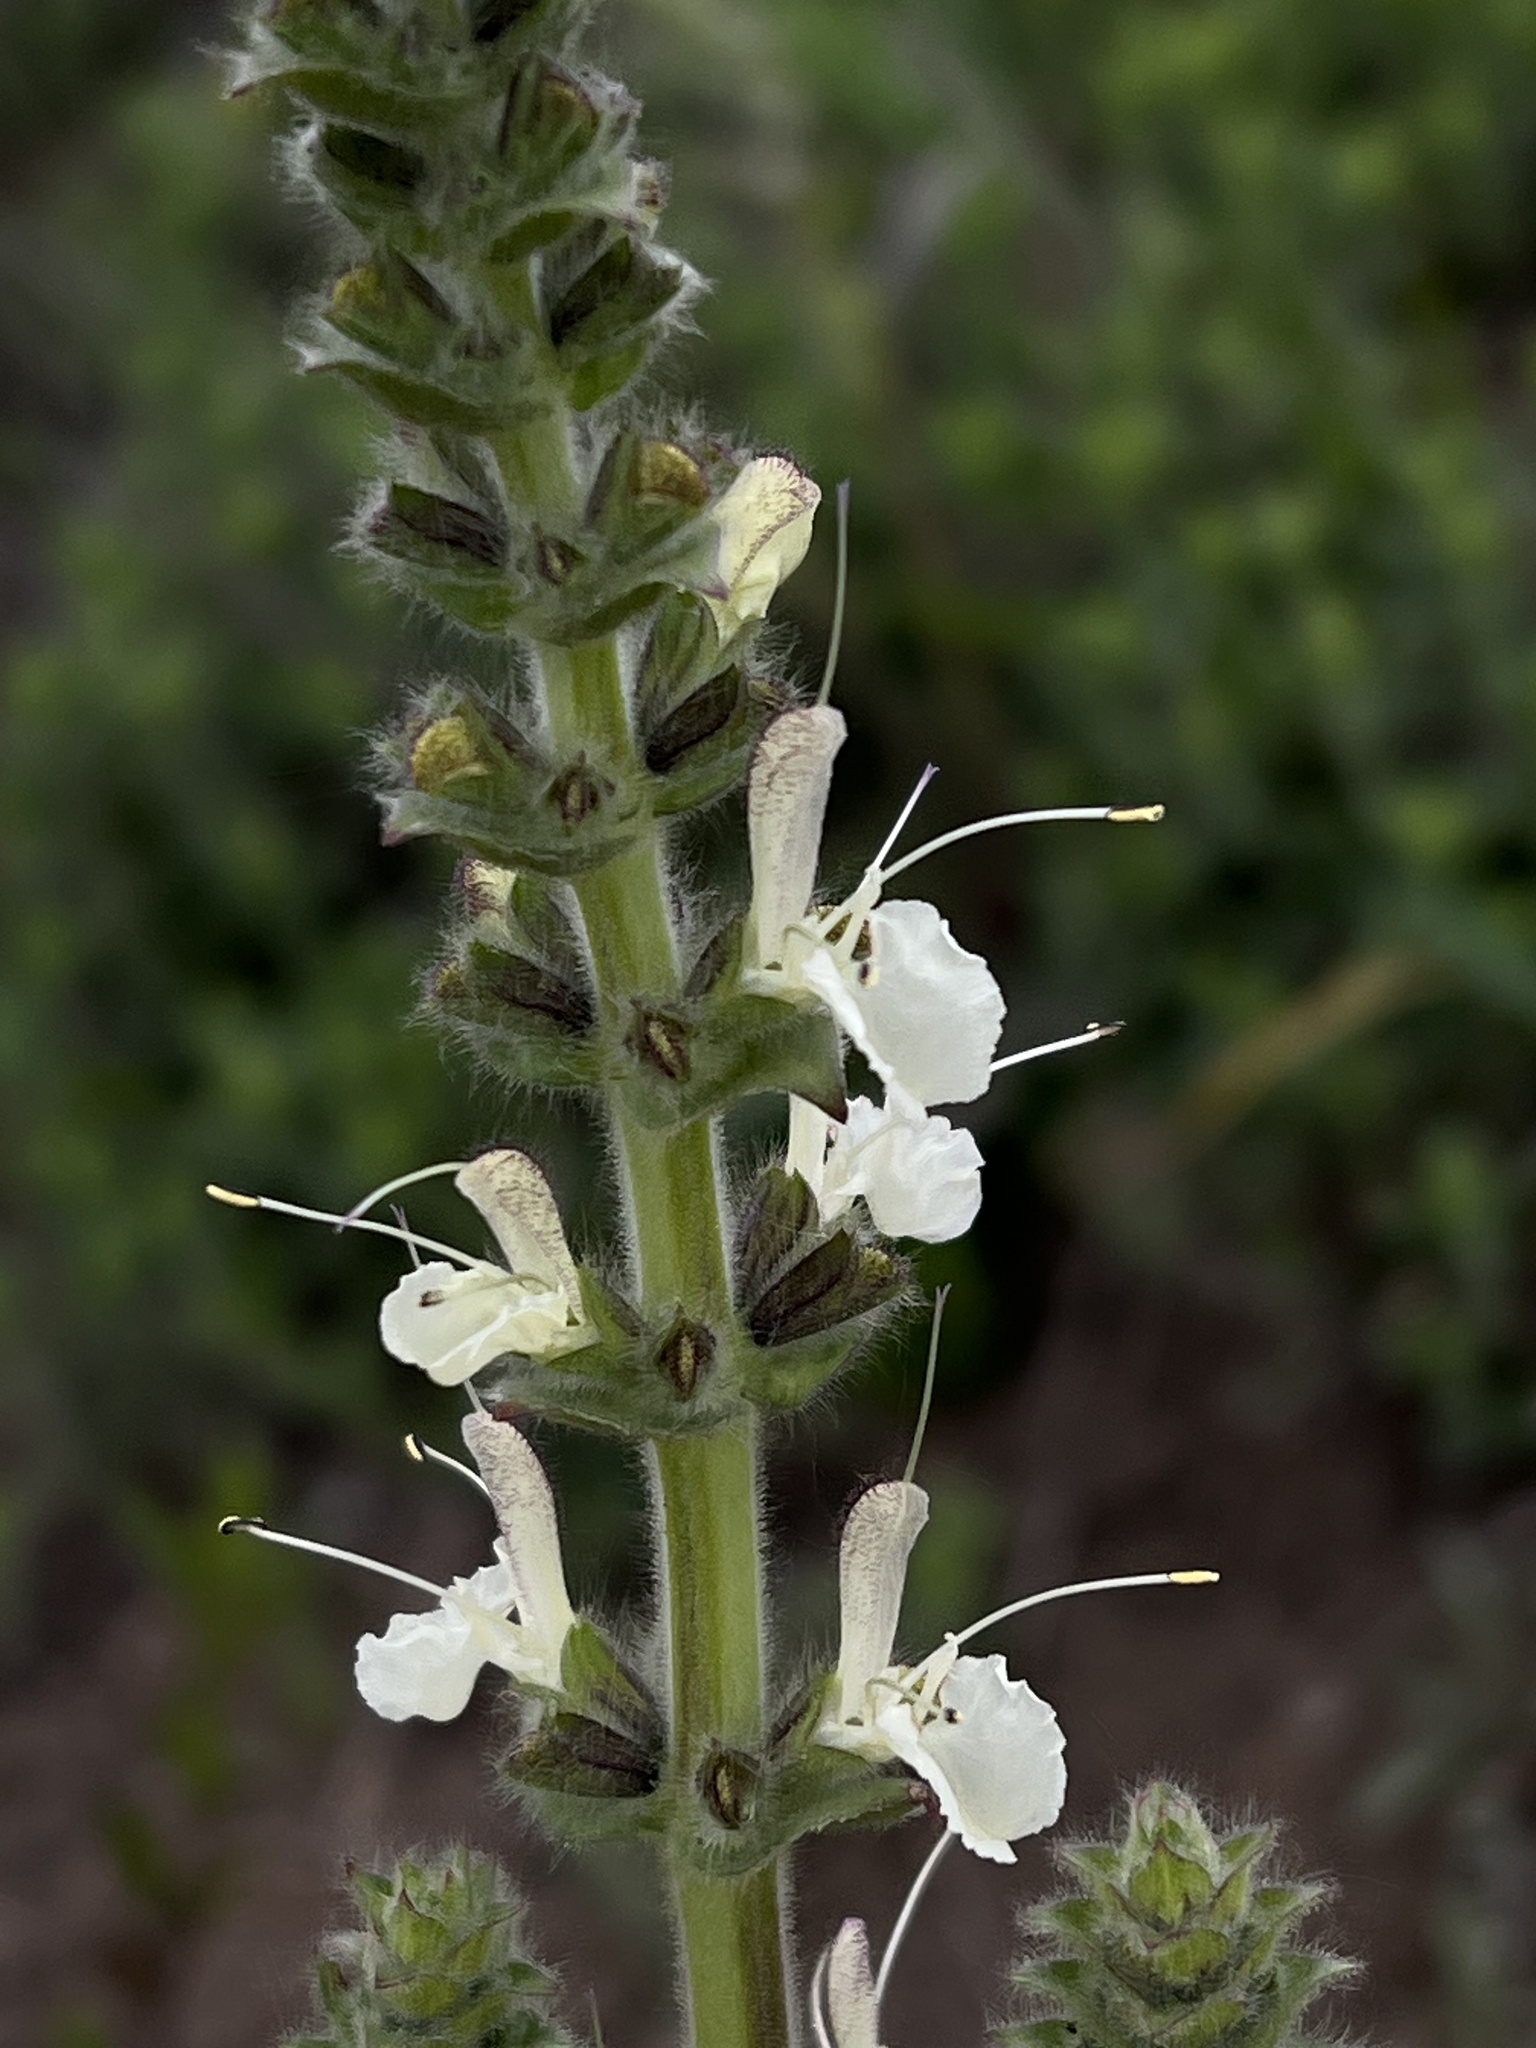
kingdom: Plantae
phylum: Tracheophyta
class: Magnoliopsida
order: Lamiales
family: Lamiaceae
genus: Salvia
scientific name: Salvia austriaca
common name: Austrian sage
